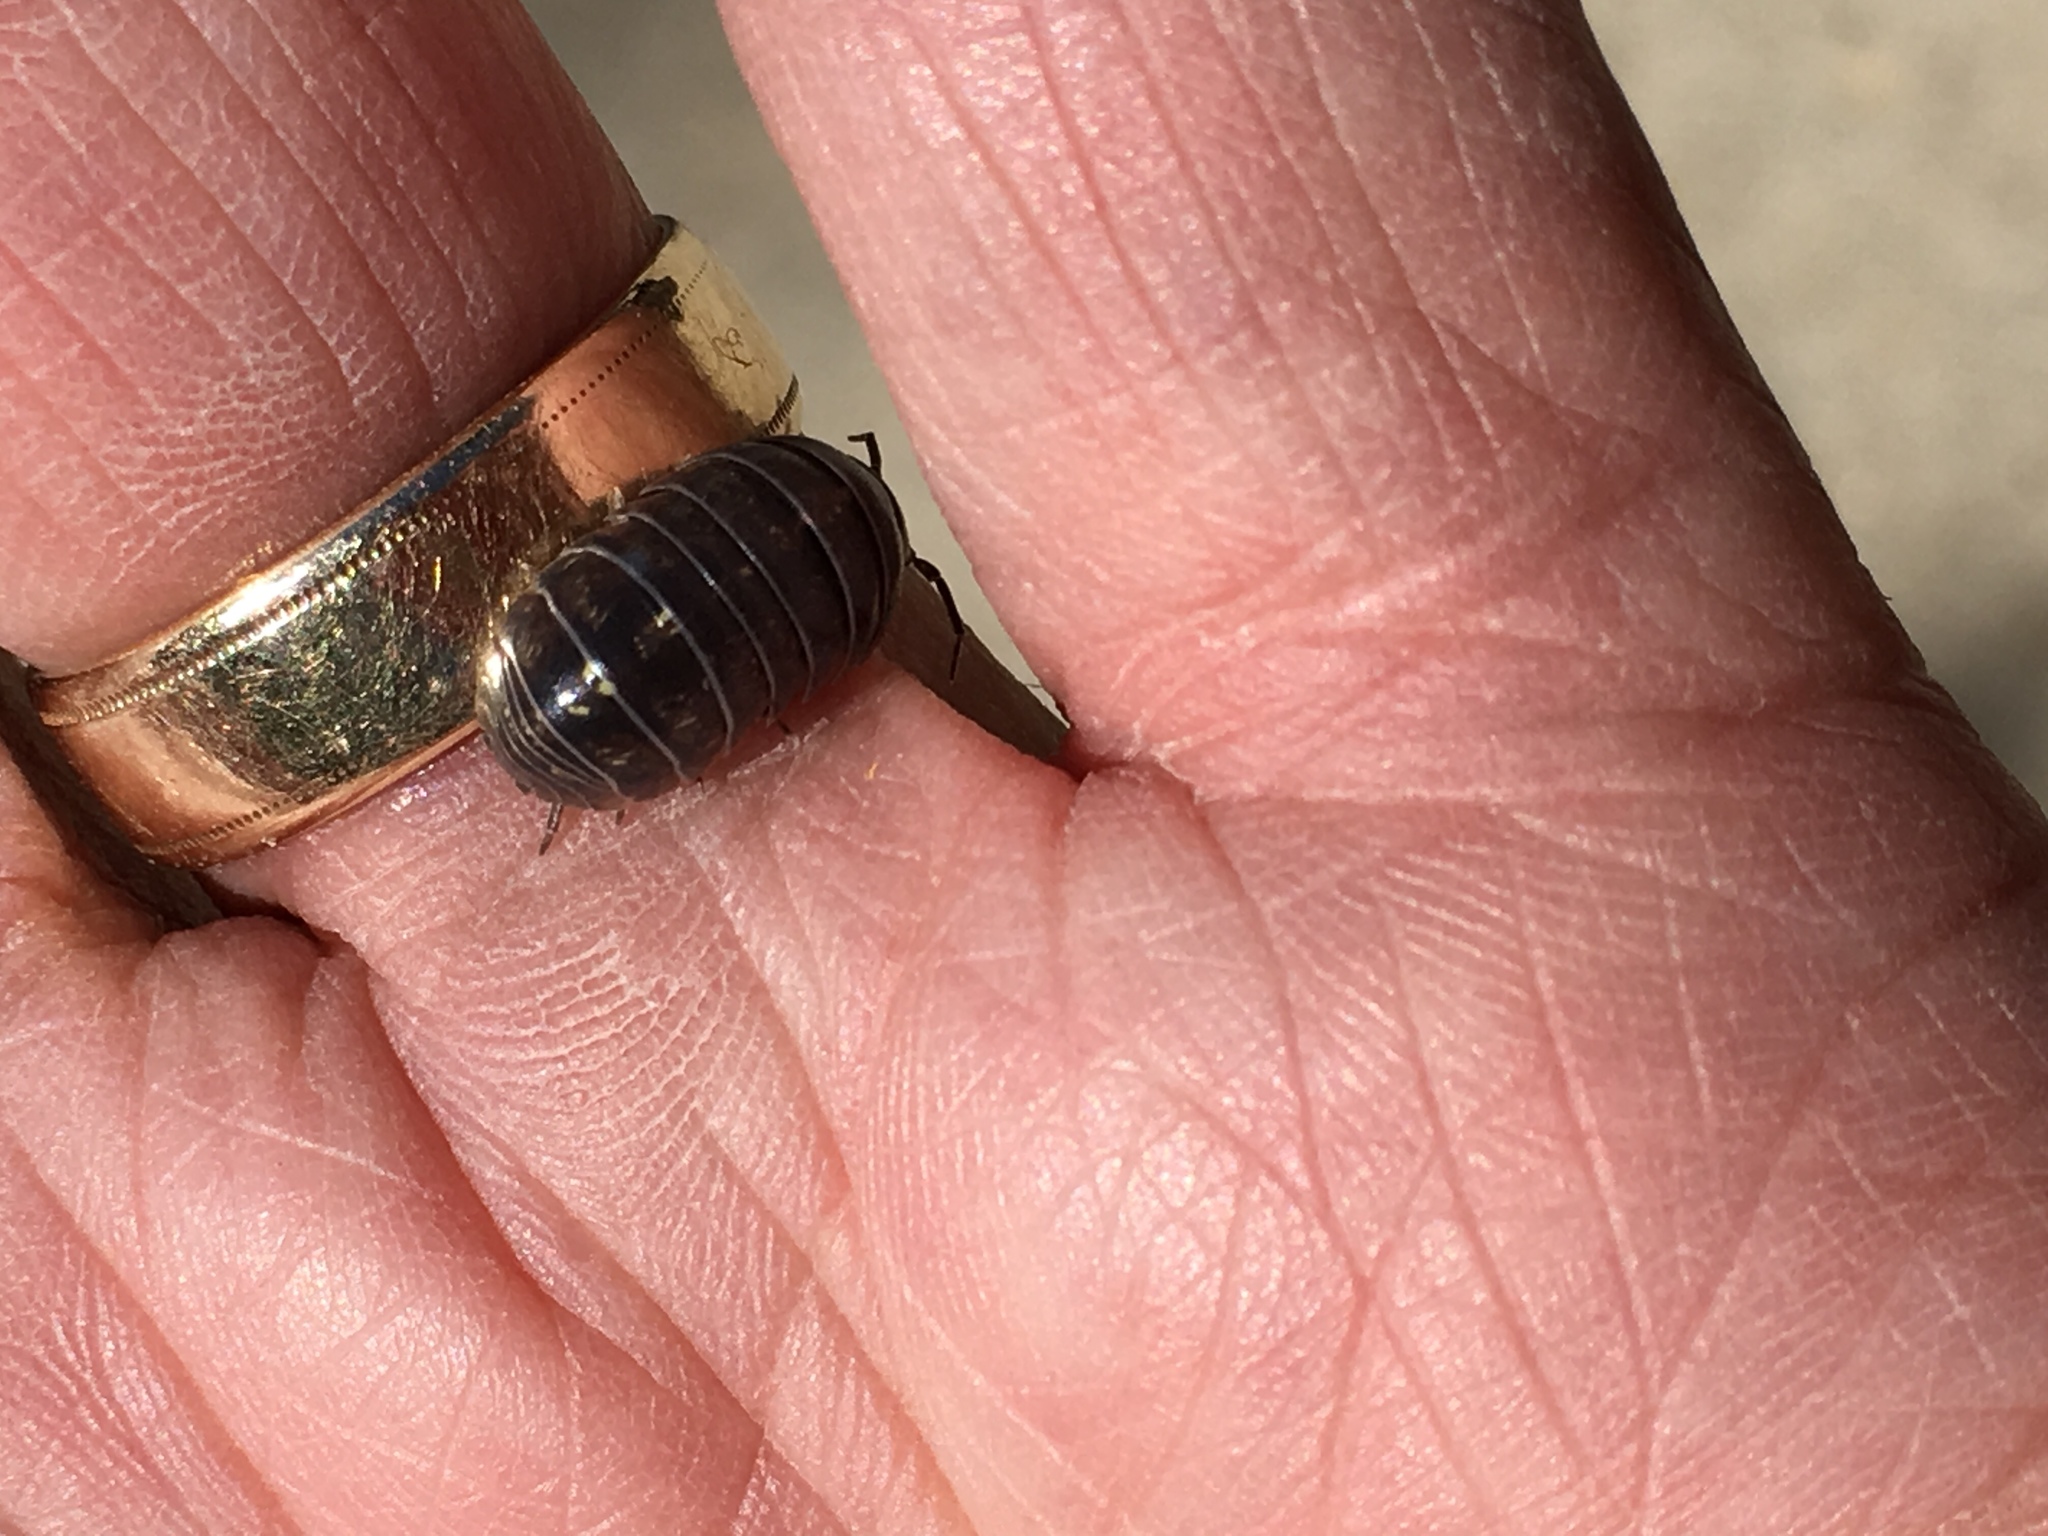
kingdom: Animalia
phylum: Arthropoda
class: Malacostraca
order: Isopoda
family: Armadillidiidae
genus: Armadillidium
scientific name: Armadillidium vulgare
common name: Common pill woodlouse
